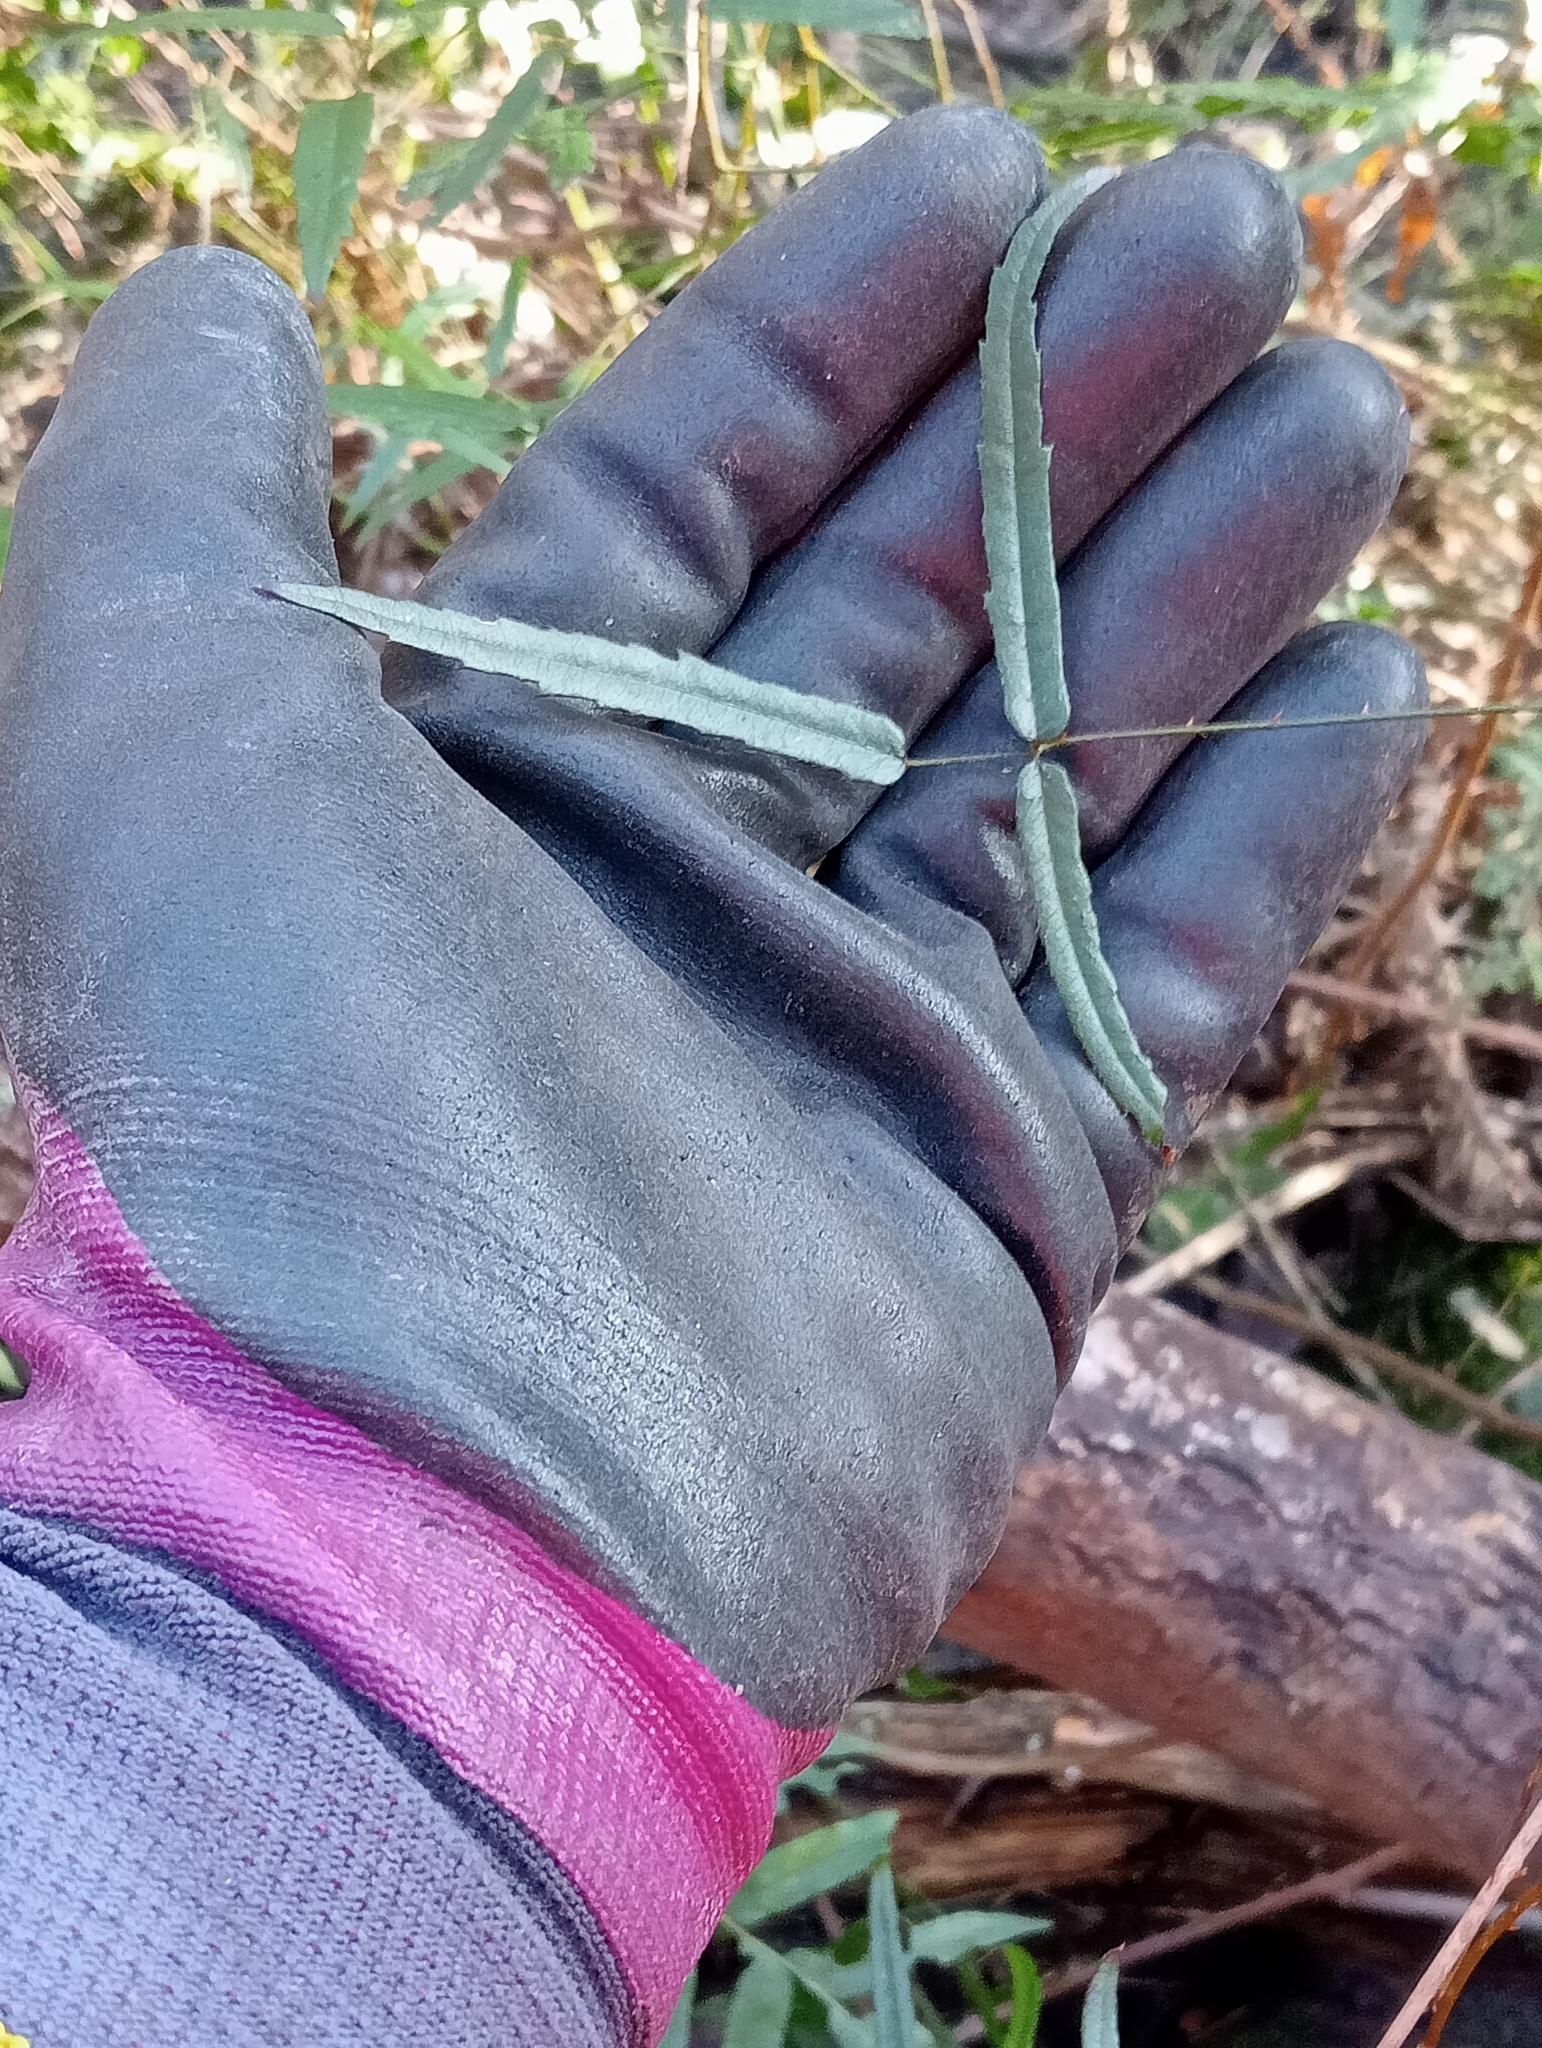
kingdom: Plantae
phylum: Tracheophyta
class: Magnoliopsida
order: Rosales
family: Rosaceae
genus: Rubus
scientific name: Rubus schmidelioides
